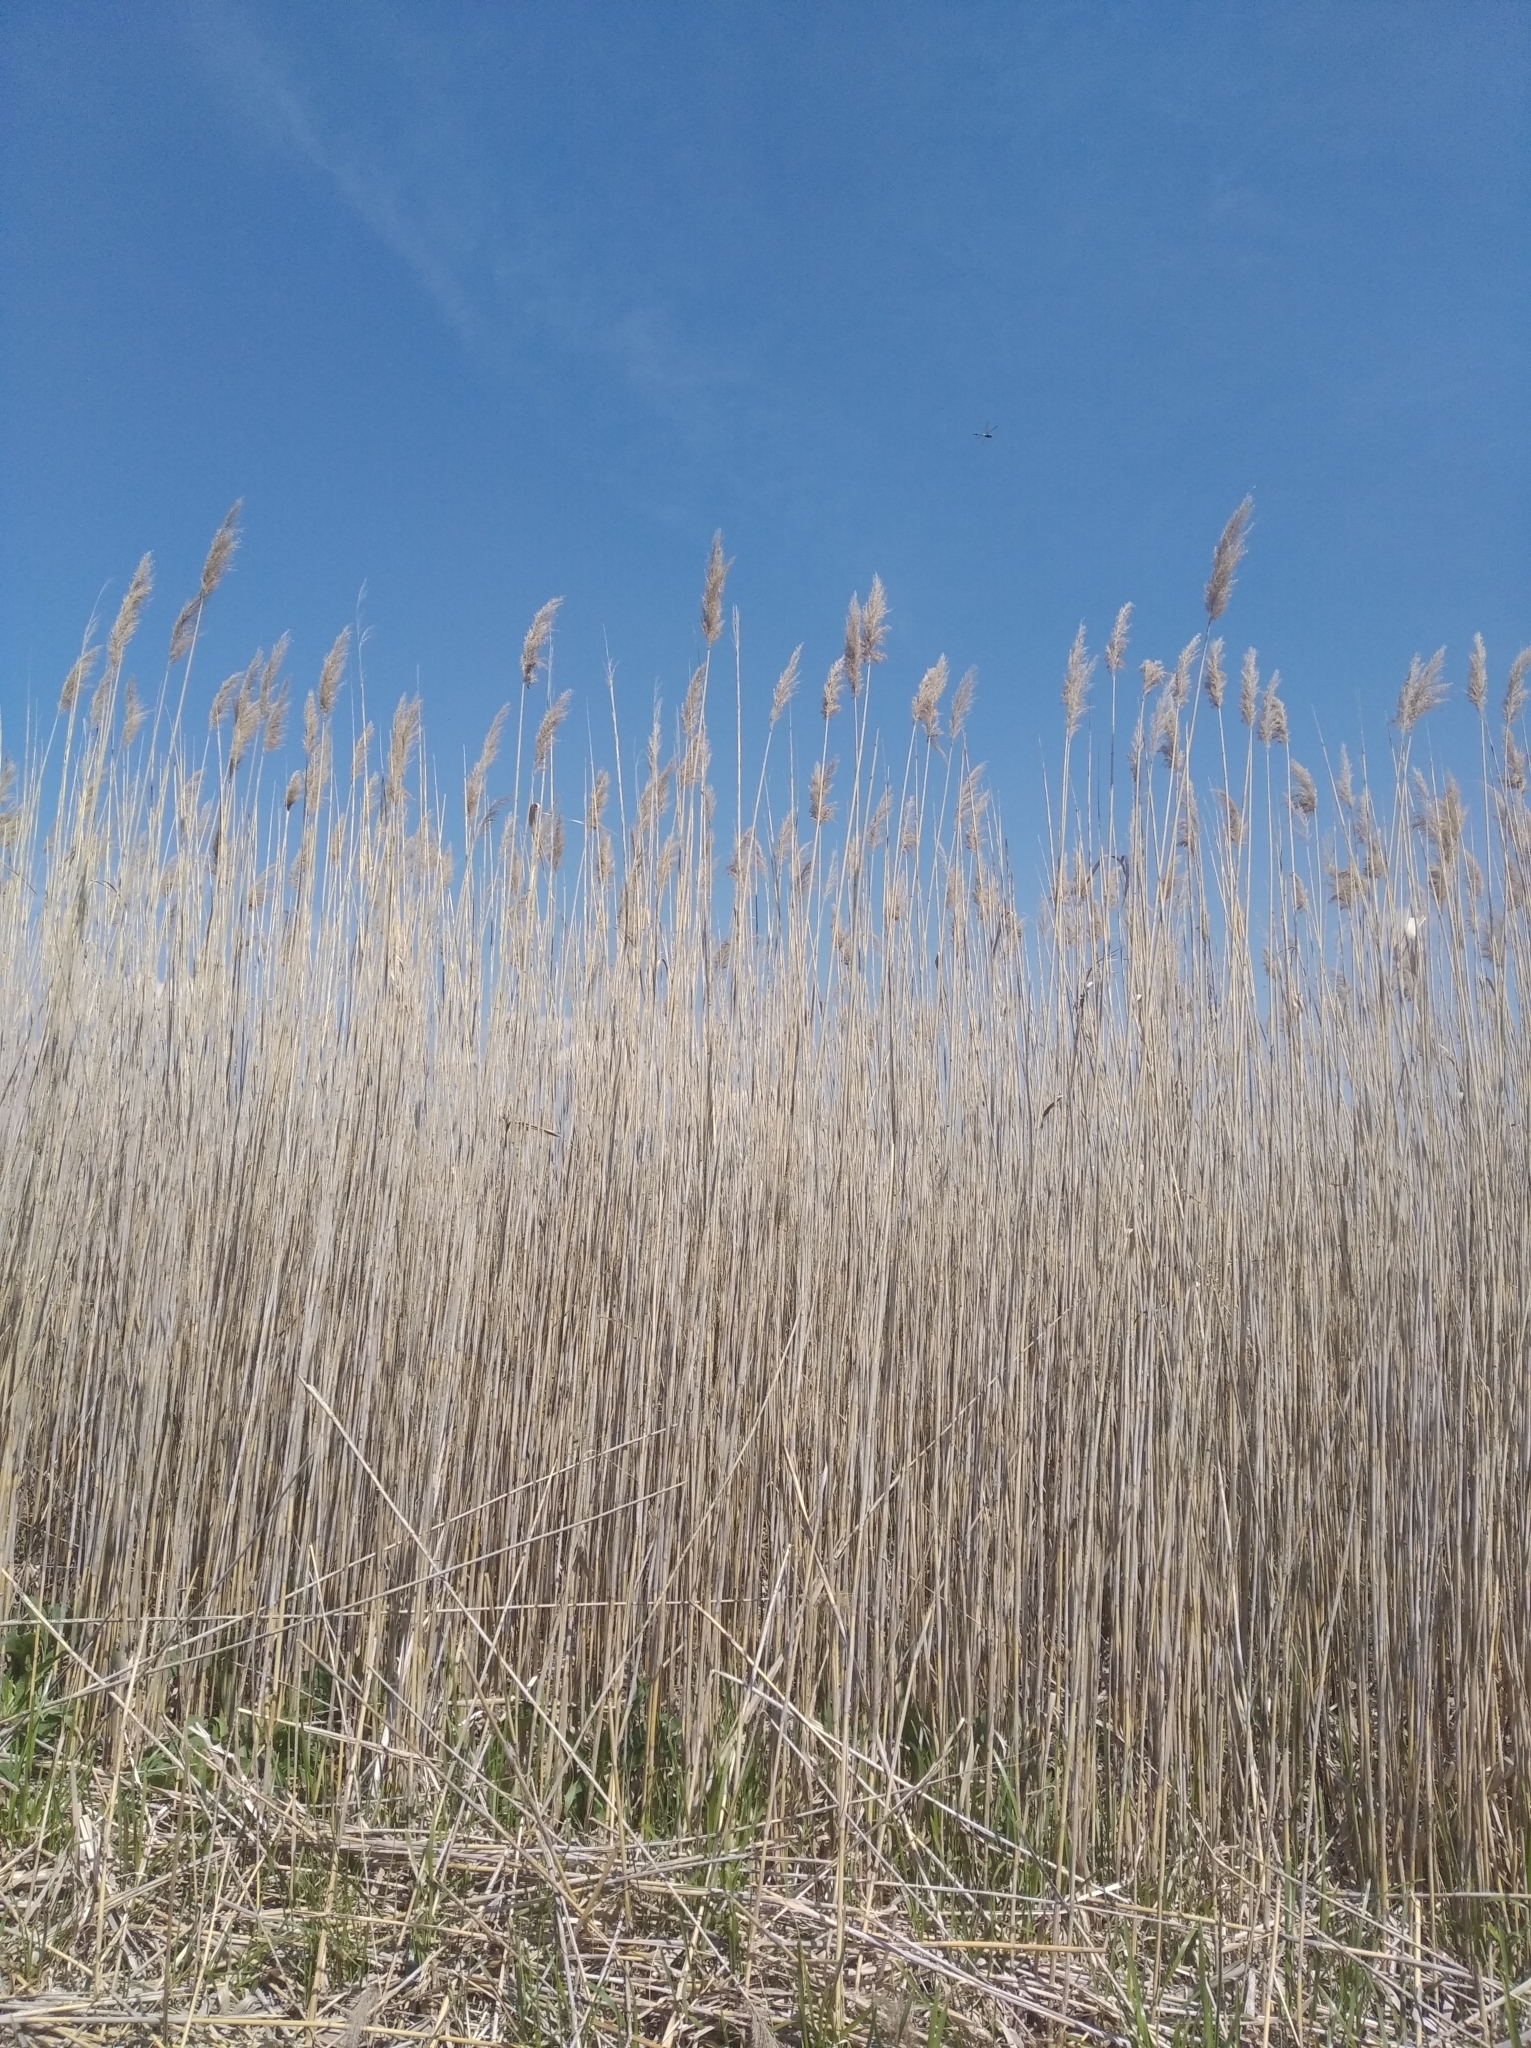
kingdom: Plantae
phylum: Tracheophyta
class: Liliopsida
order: Poales
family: Poaceae
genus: Phragmites
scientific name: Phragmites australis
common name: Common reed
